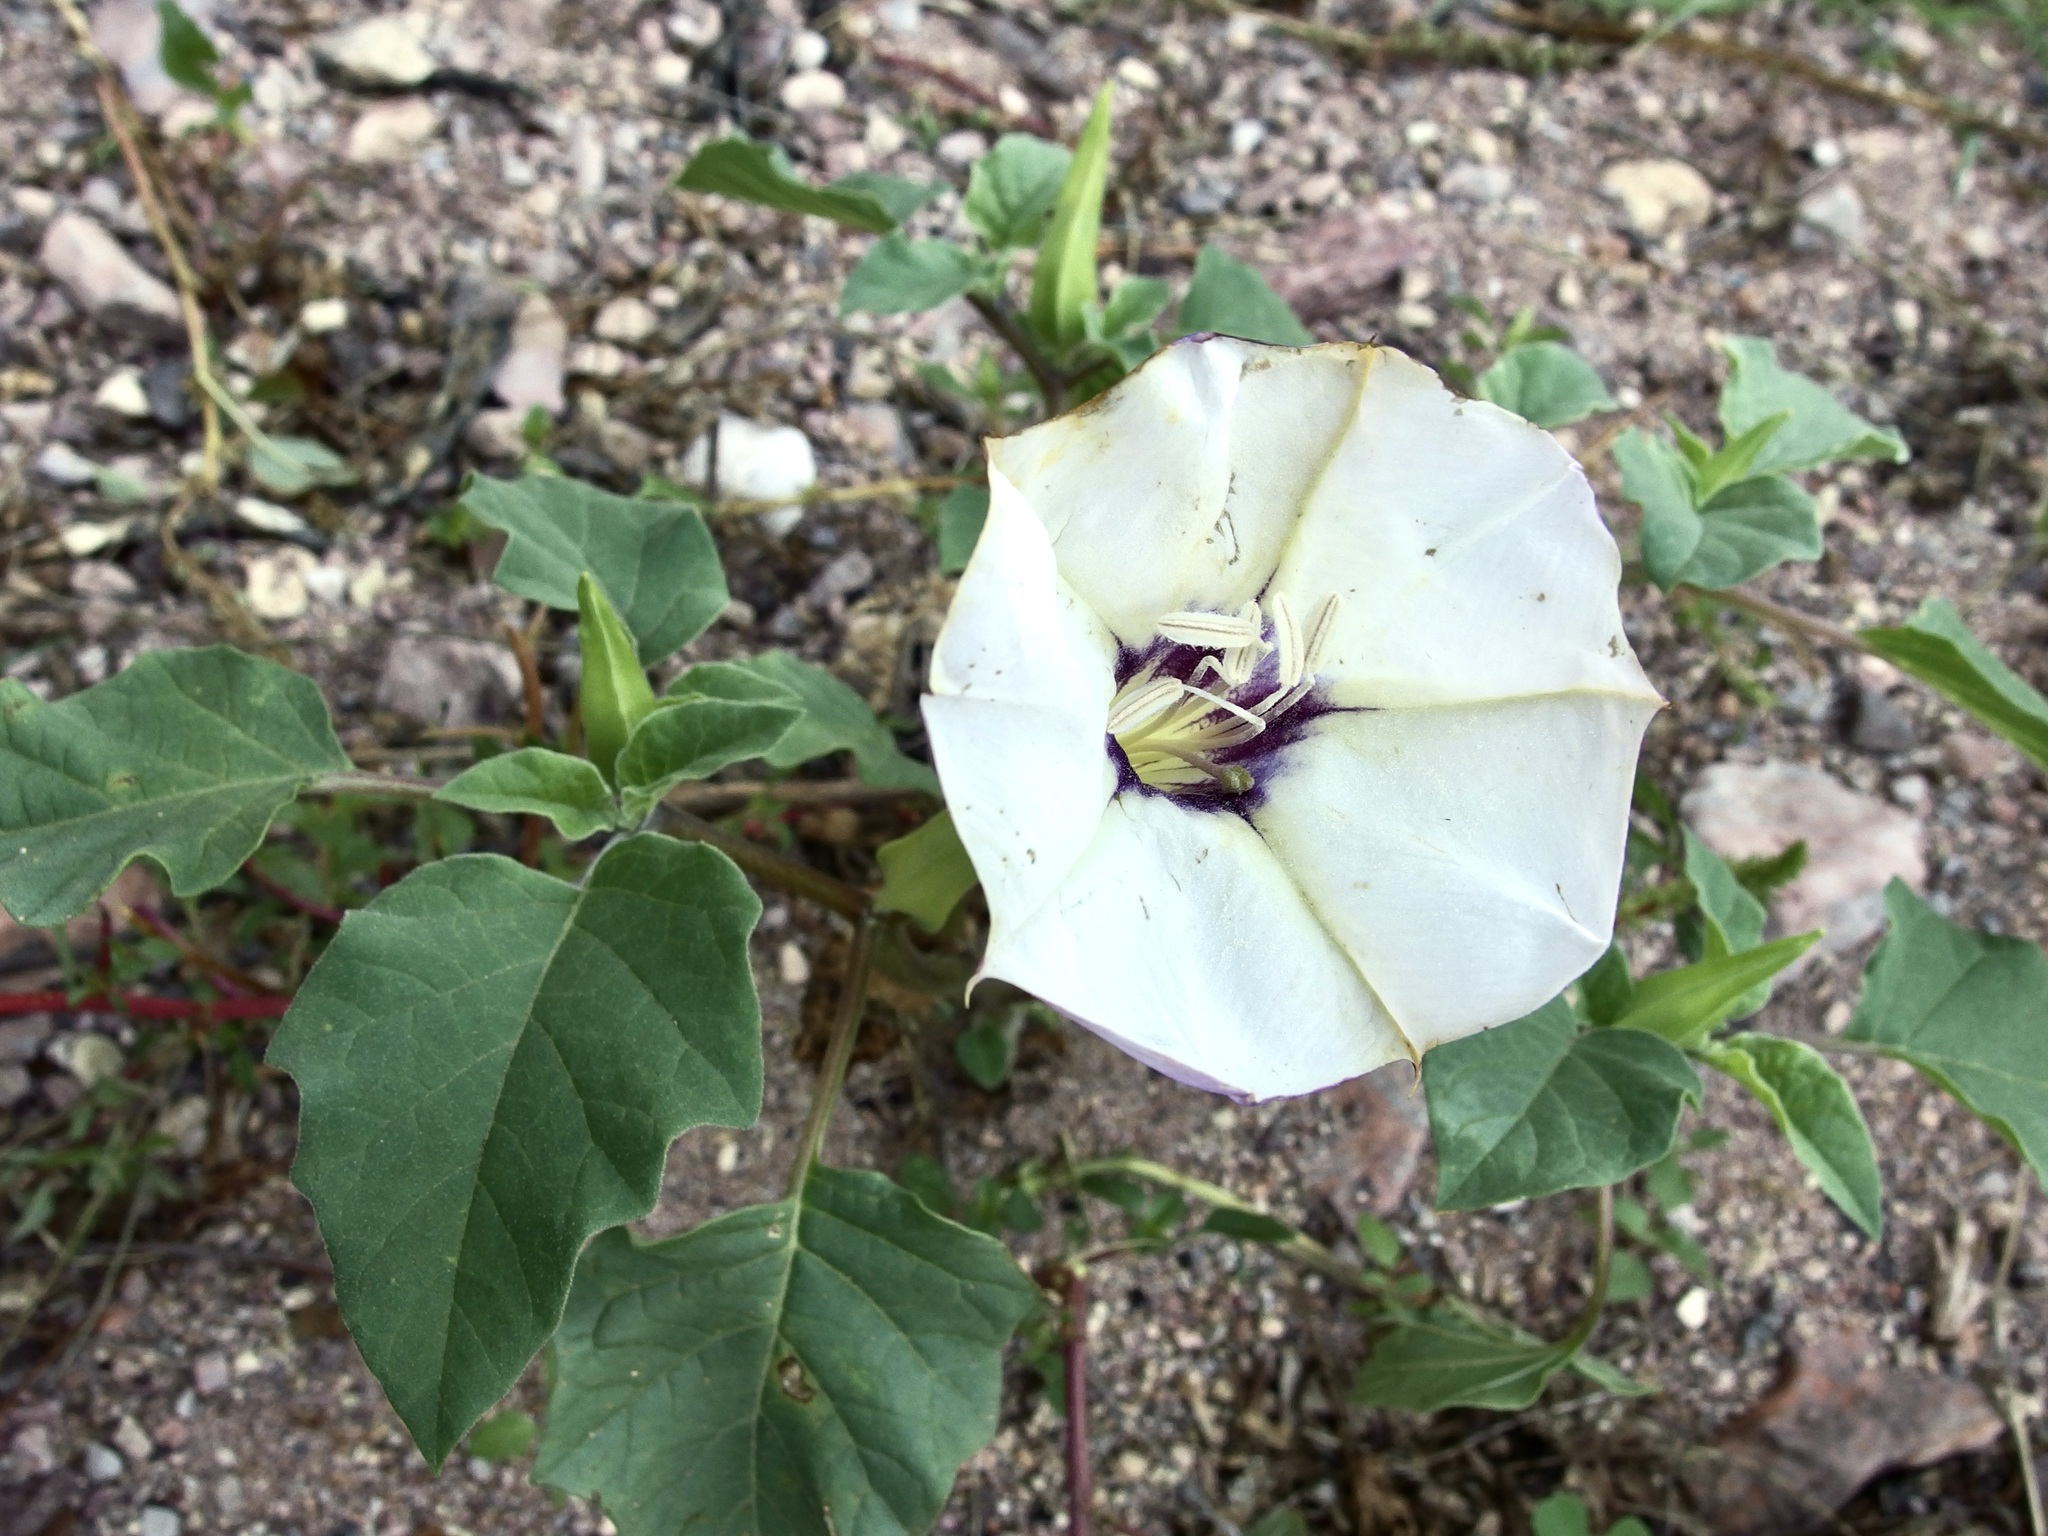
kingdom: Plantae
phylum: Tracheophyta
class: Magnoliopsida
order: Solanales
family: Solanaceae
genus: Datura
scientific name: Datura discolor
